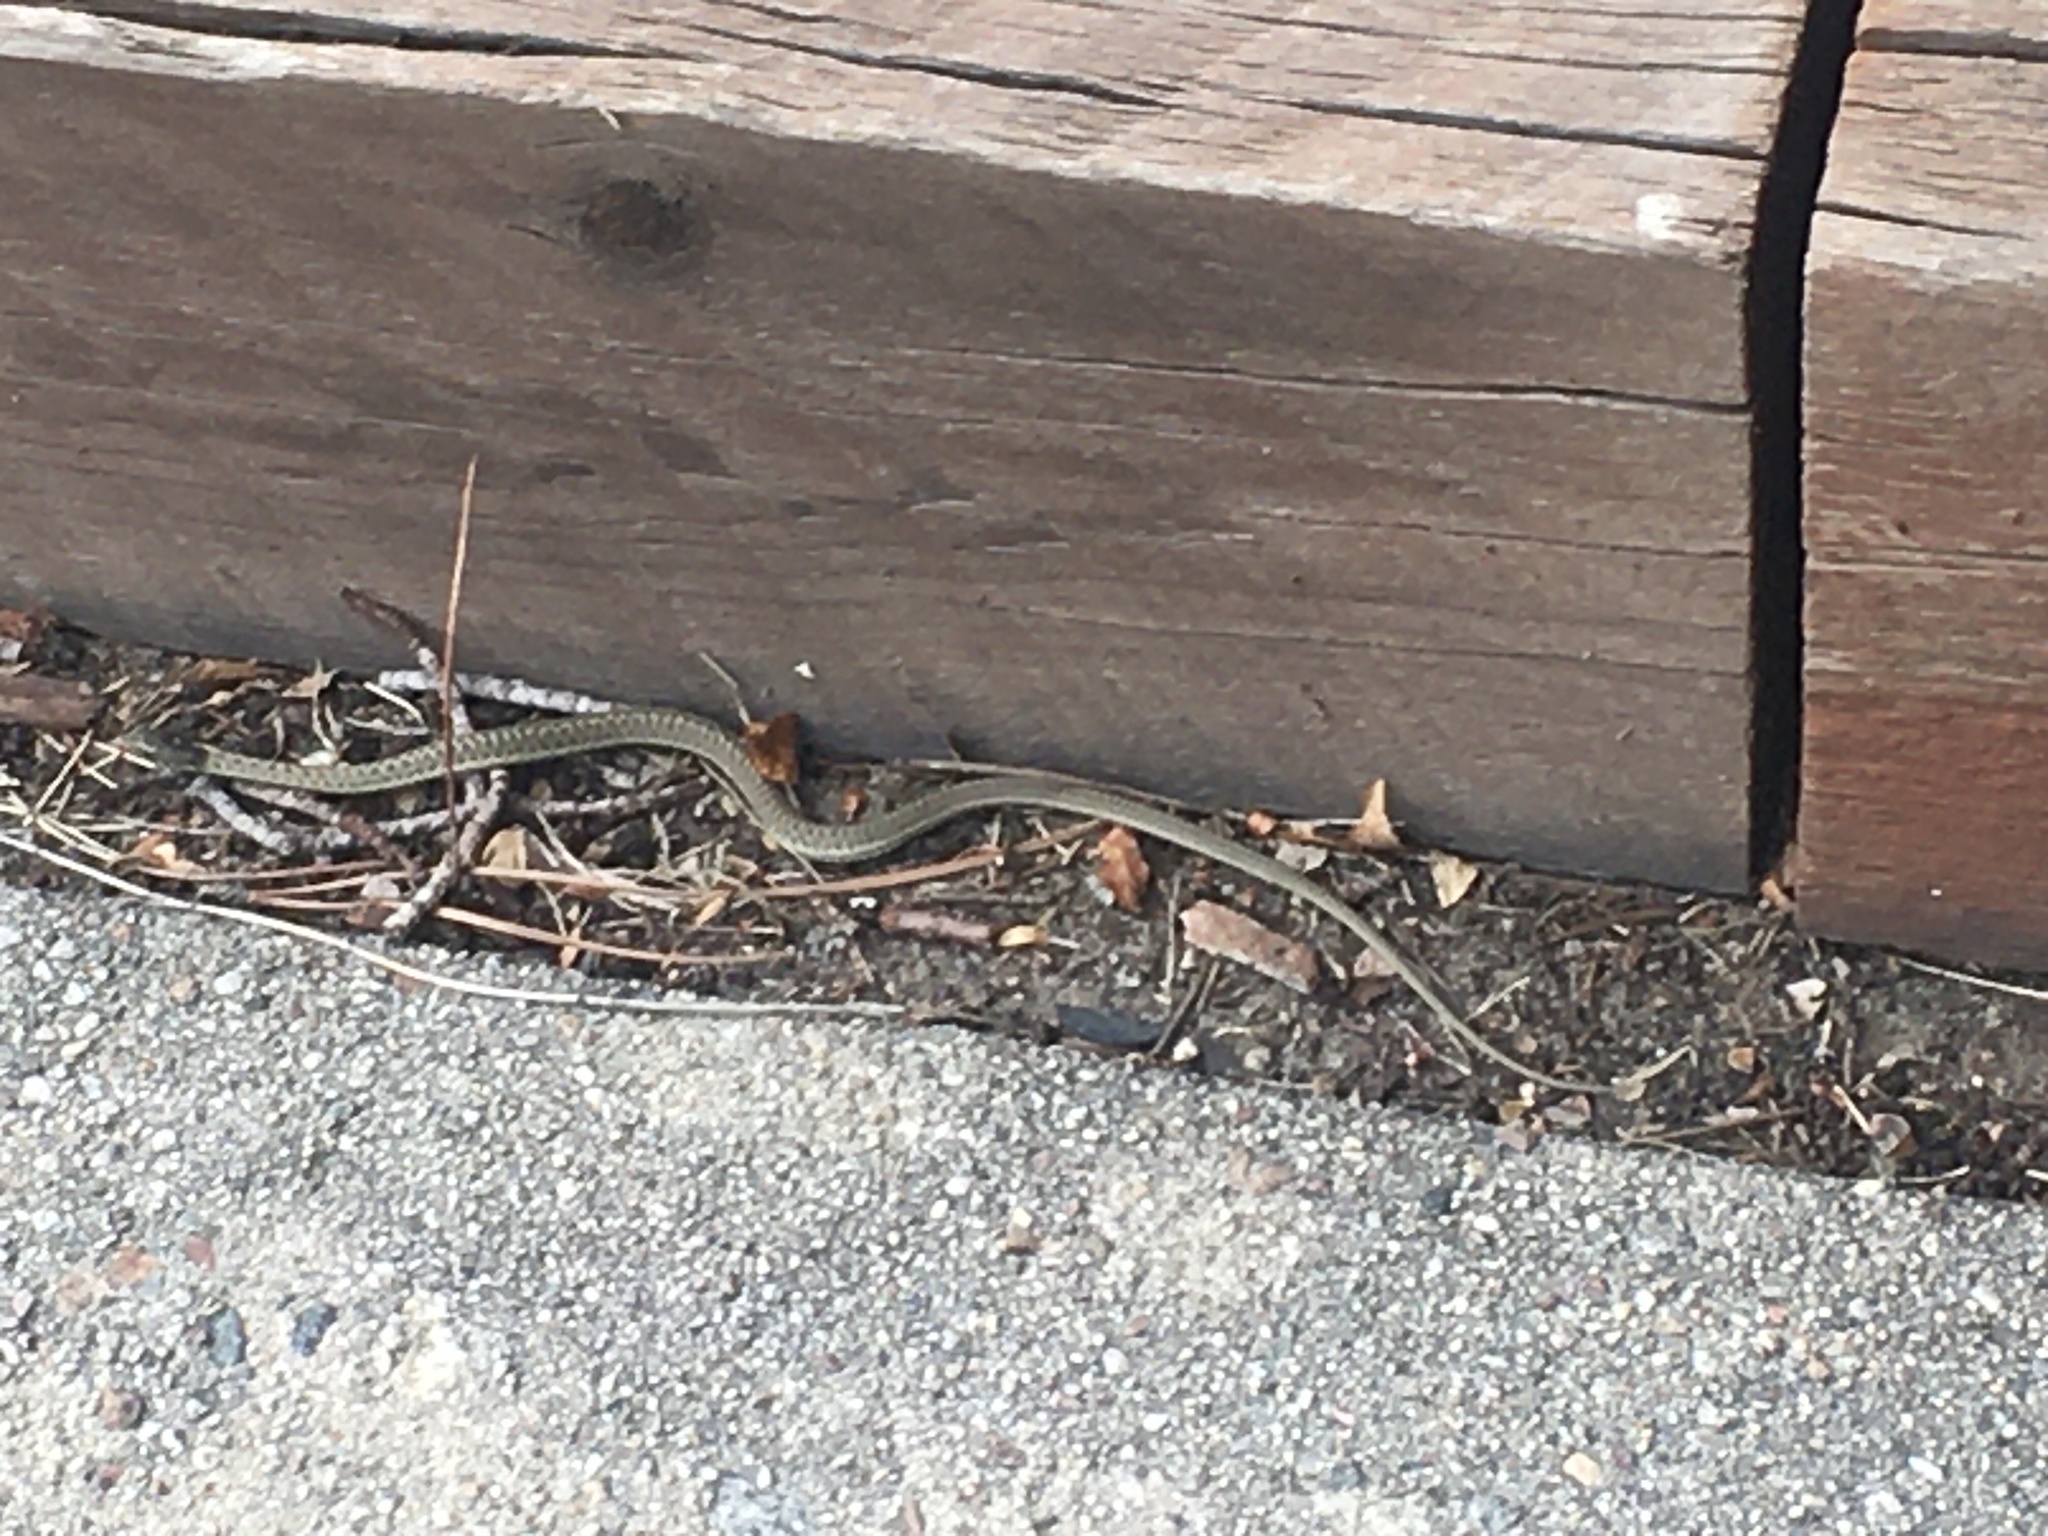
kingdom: Animalia
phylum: Chordata
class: Squamata
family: Colubridae
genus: Thamnophis
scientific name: Thamnophis elegans
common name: Western terrestrial garter snake
